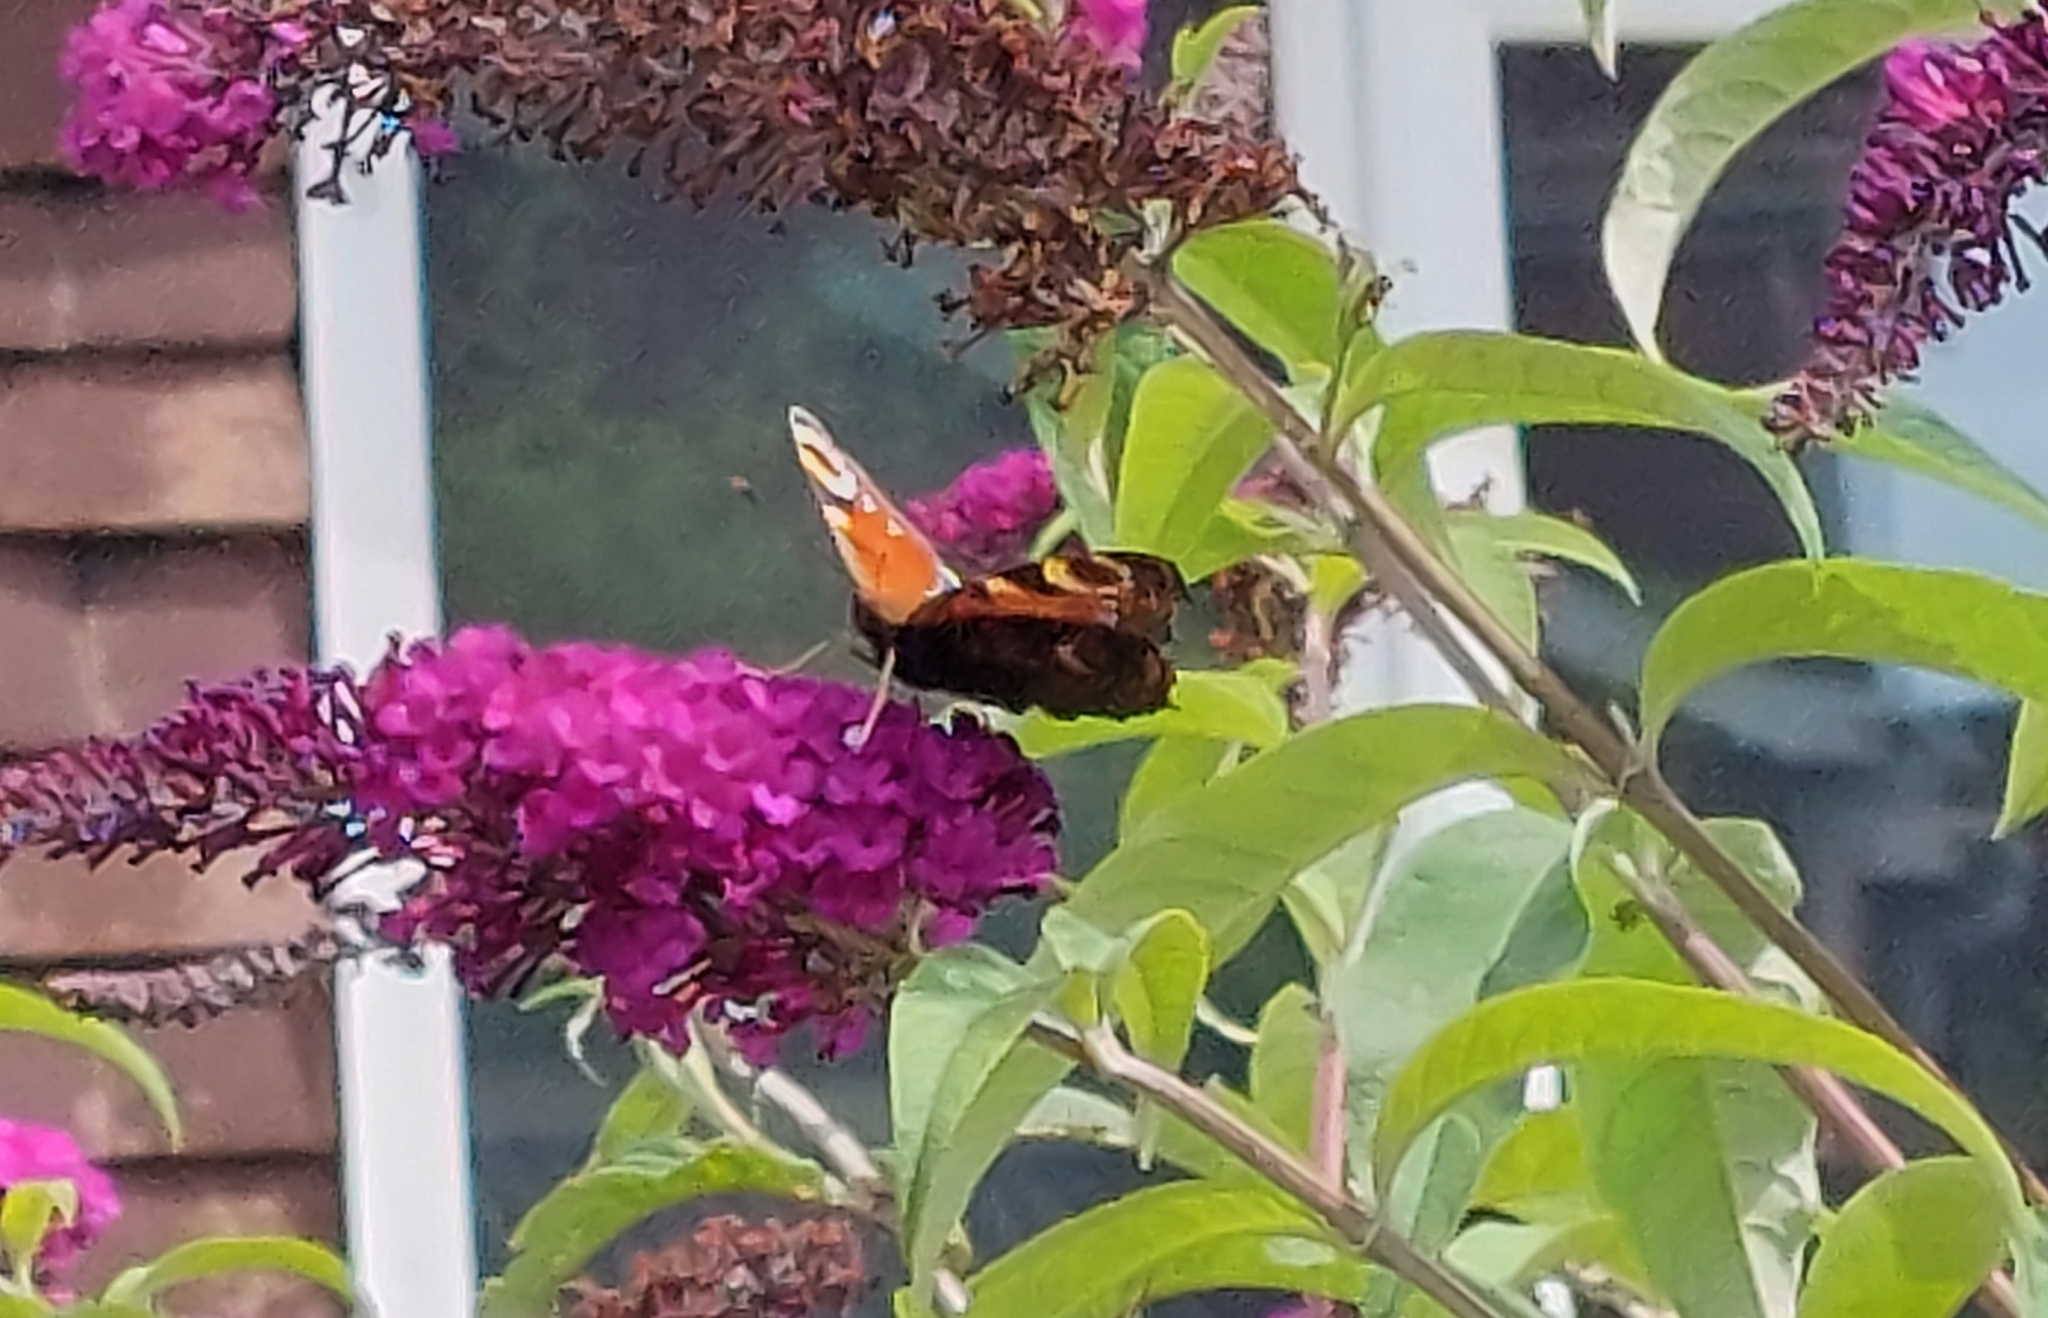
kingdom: Animalia
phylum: Arthropoda
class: Insecta
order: Lepidoptera
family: Nymphalidae
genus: Aglais
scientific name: Aglais io
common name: Peacock
